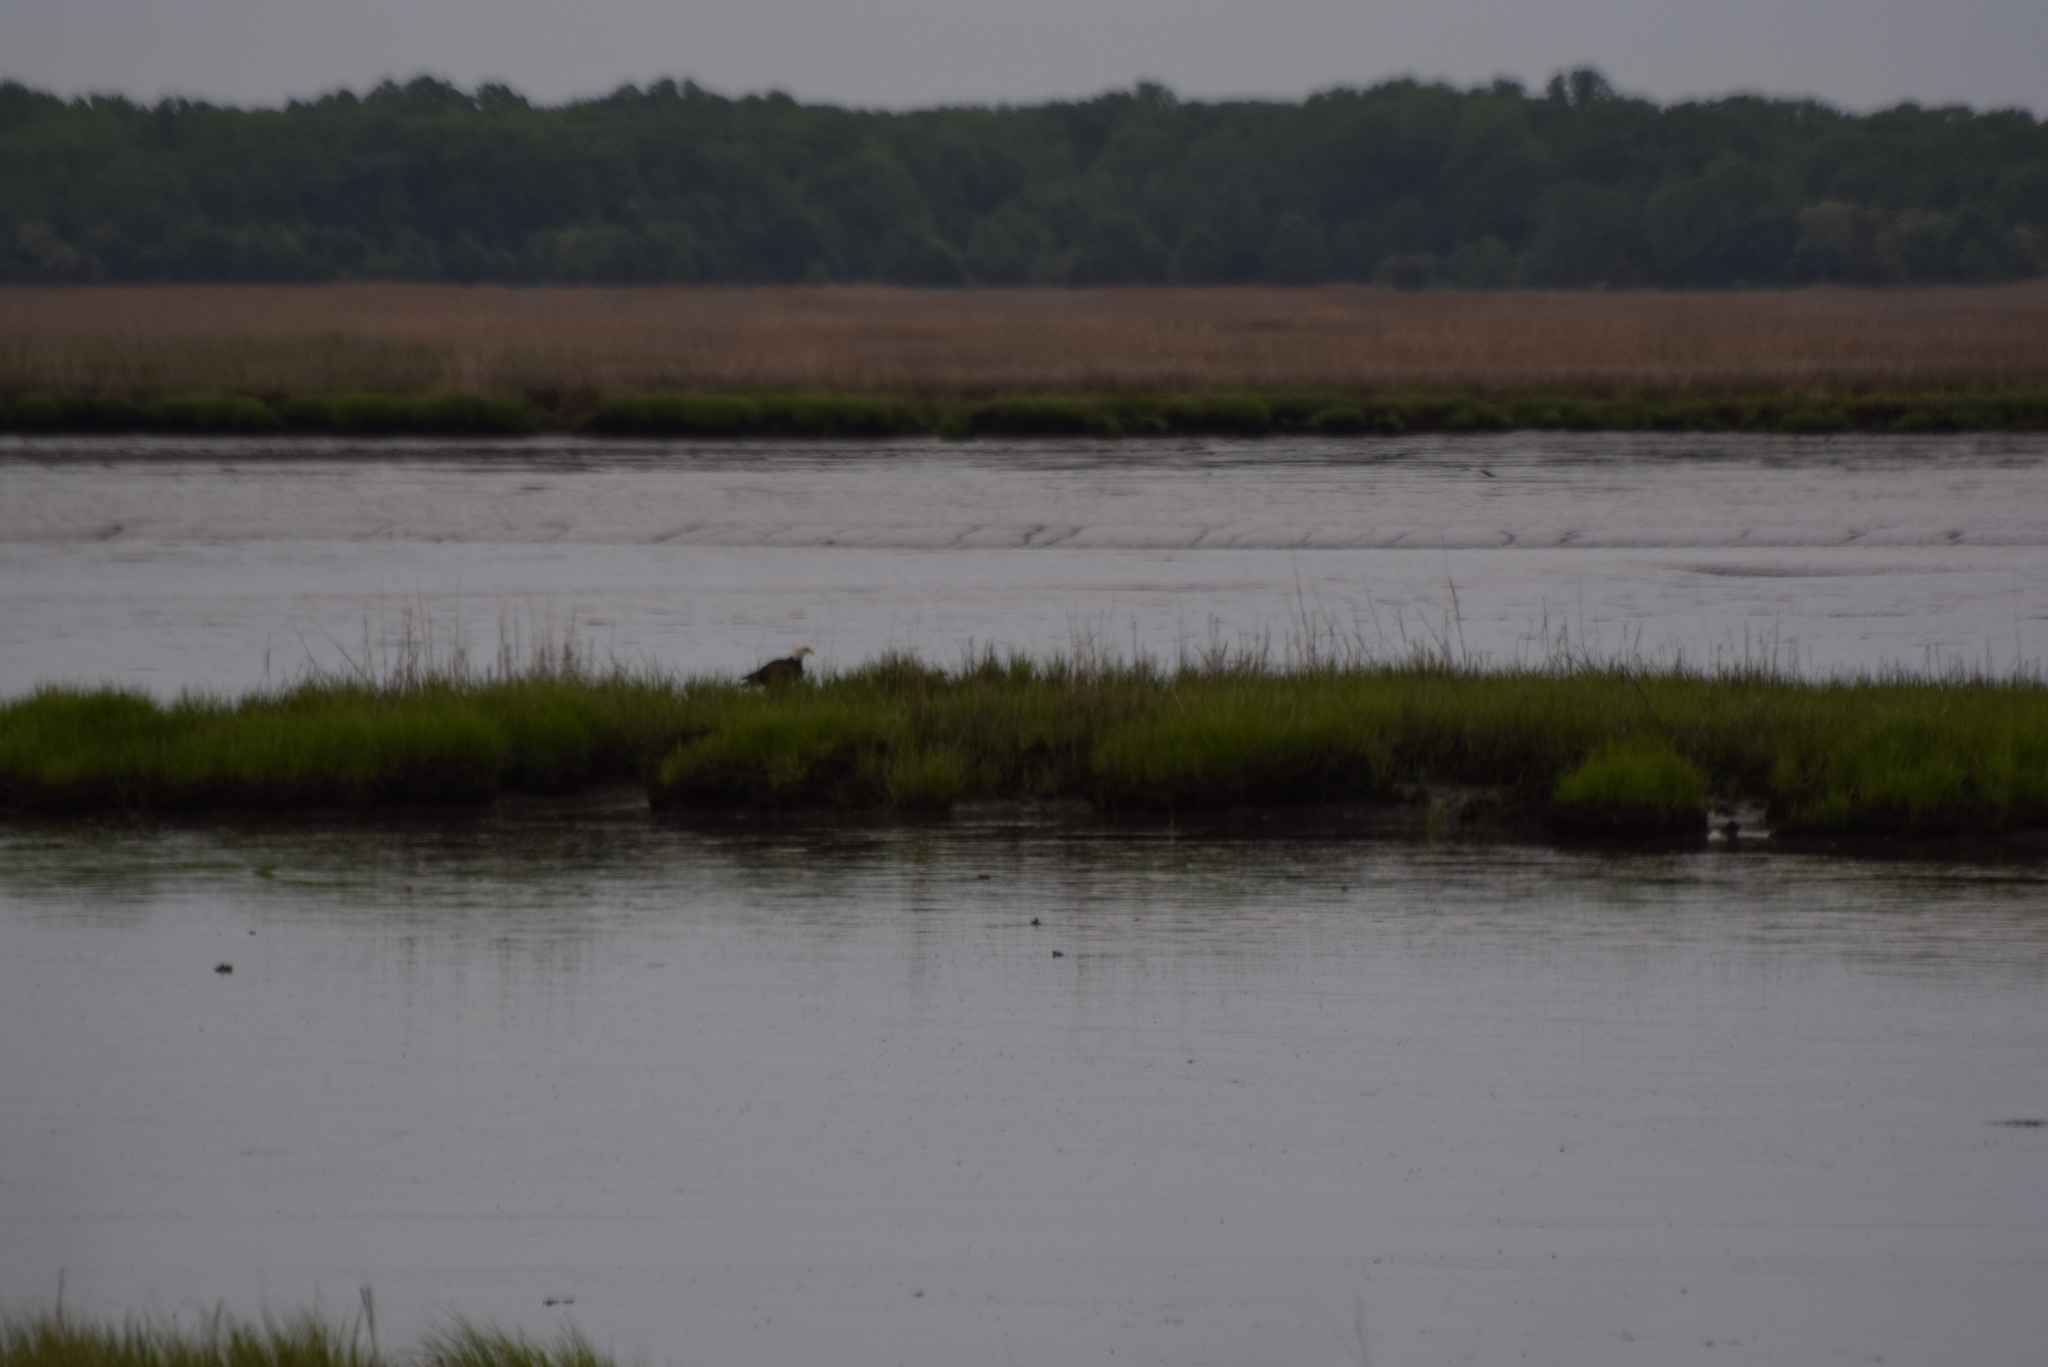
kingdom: Animalia
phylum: Chordata
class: Aves
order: Accipitriformes
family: Accipitridae
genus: Haliaeetus
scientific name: Haliaeetus leucocephalus
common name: Bald eagle
